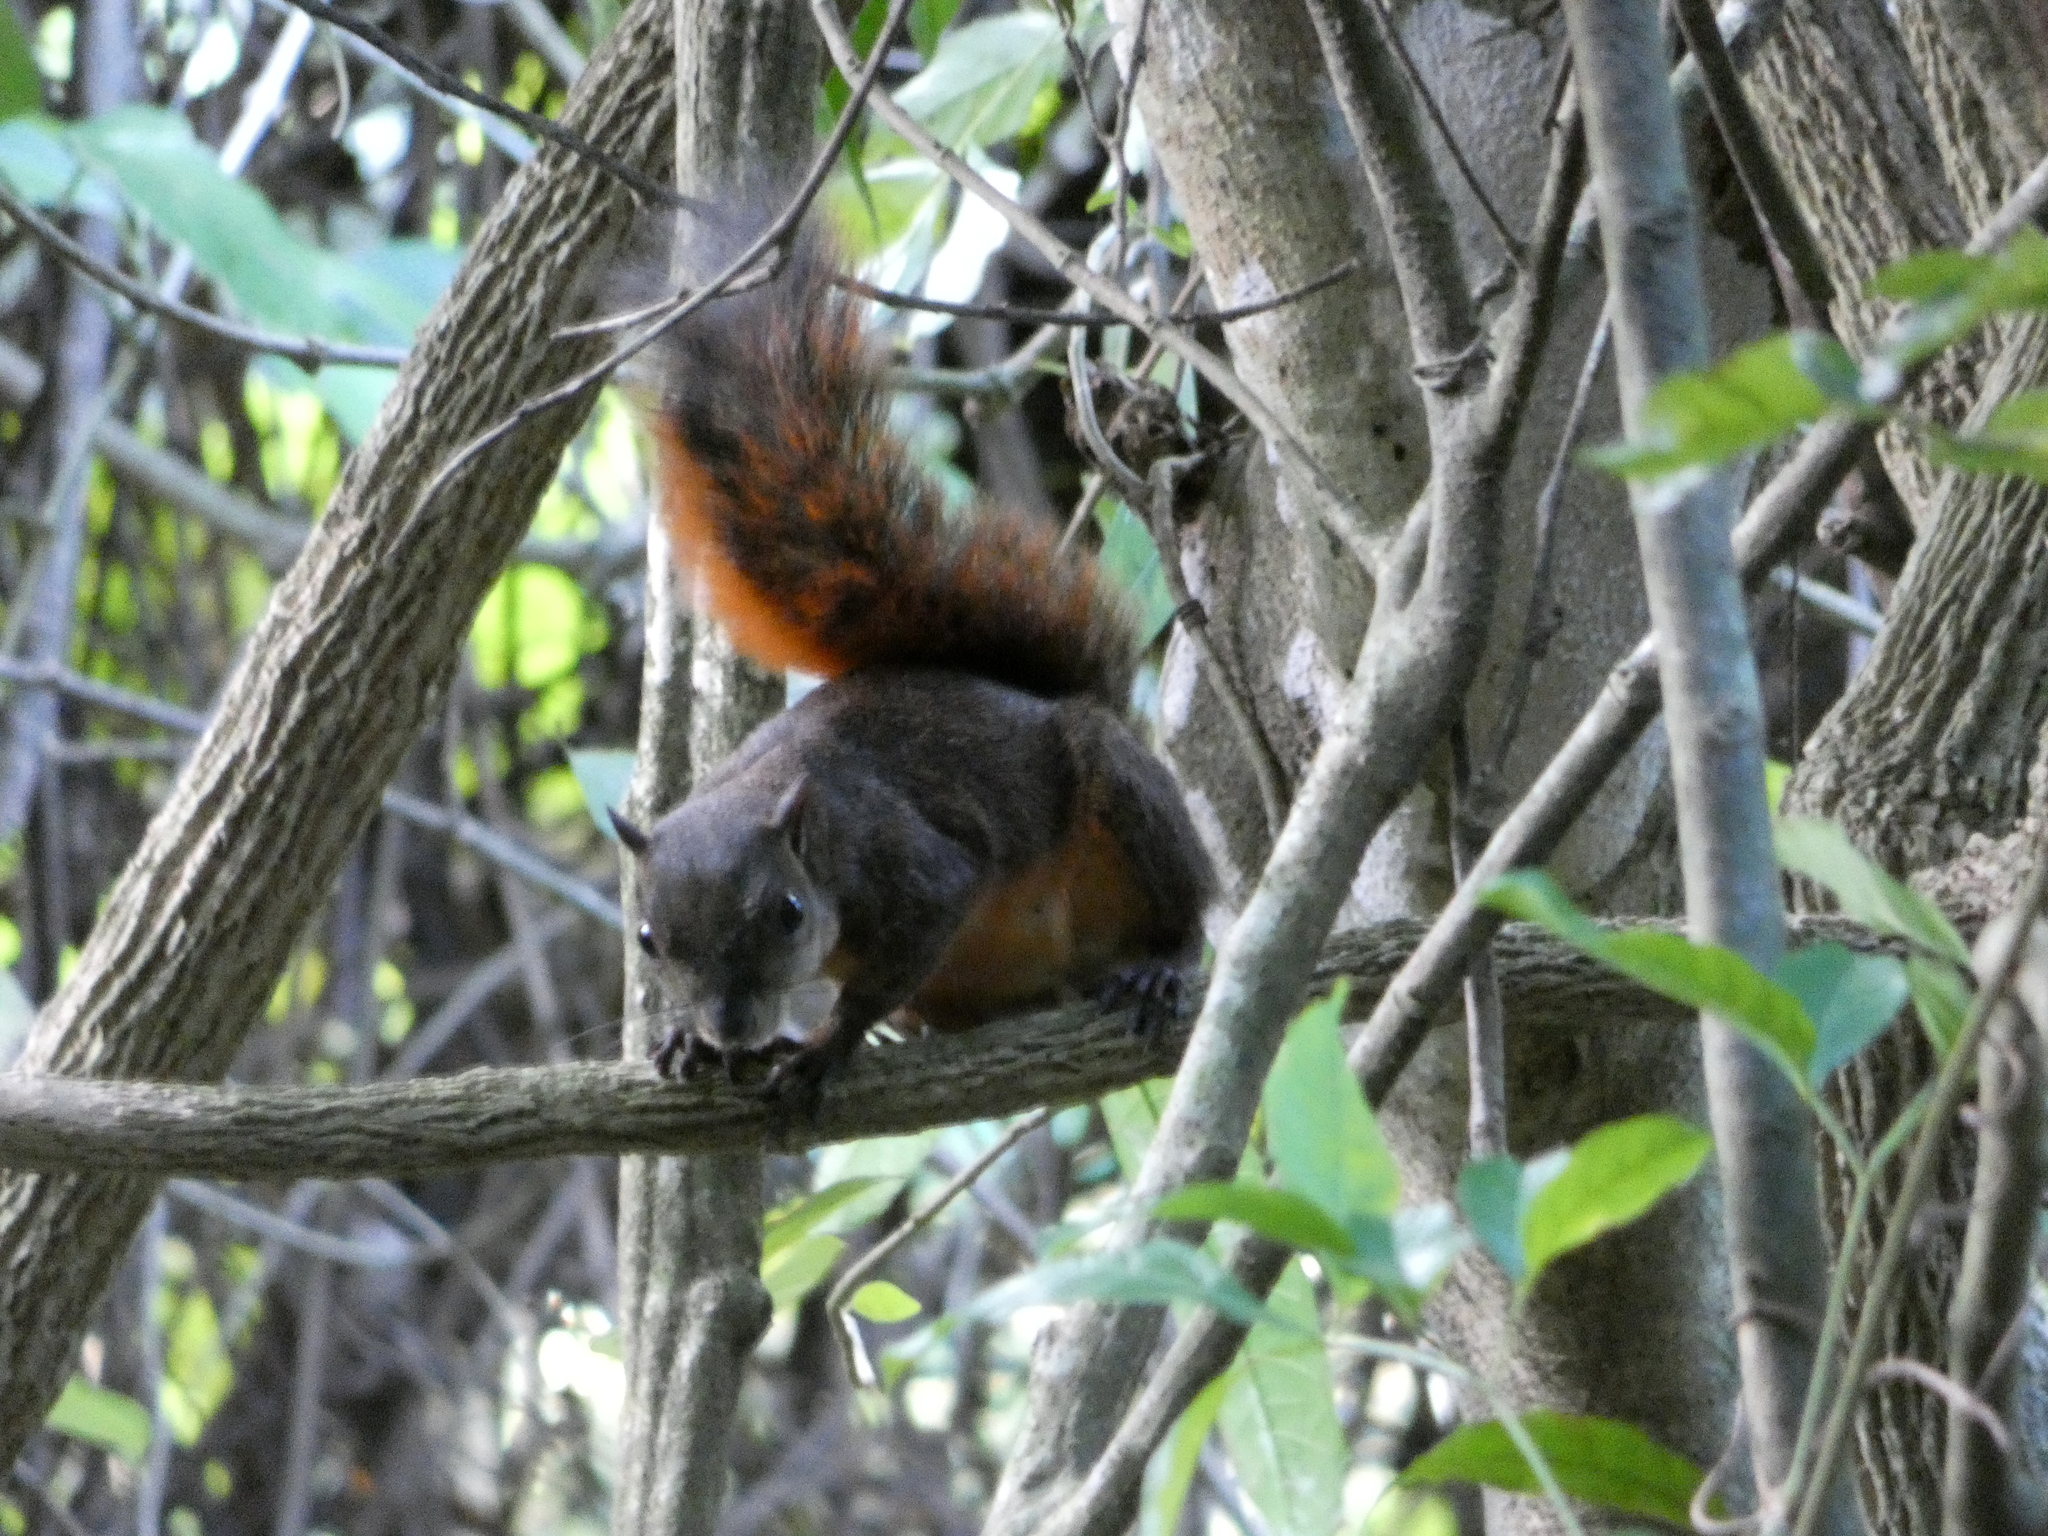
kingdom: Animalia
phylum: Chordata
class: Mammalia
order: Rodentia
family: Sciuridae
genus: Sciurus
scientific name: Sciurus granatensis
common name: Red-tailed squirrel
